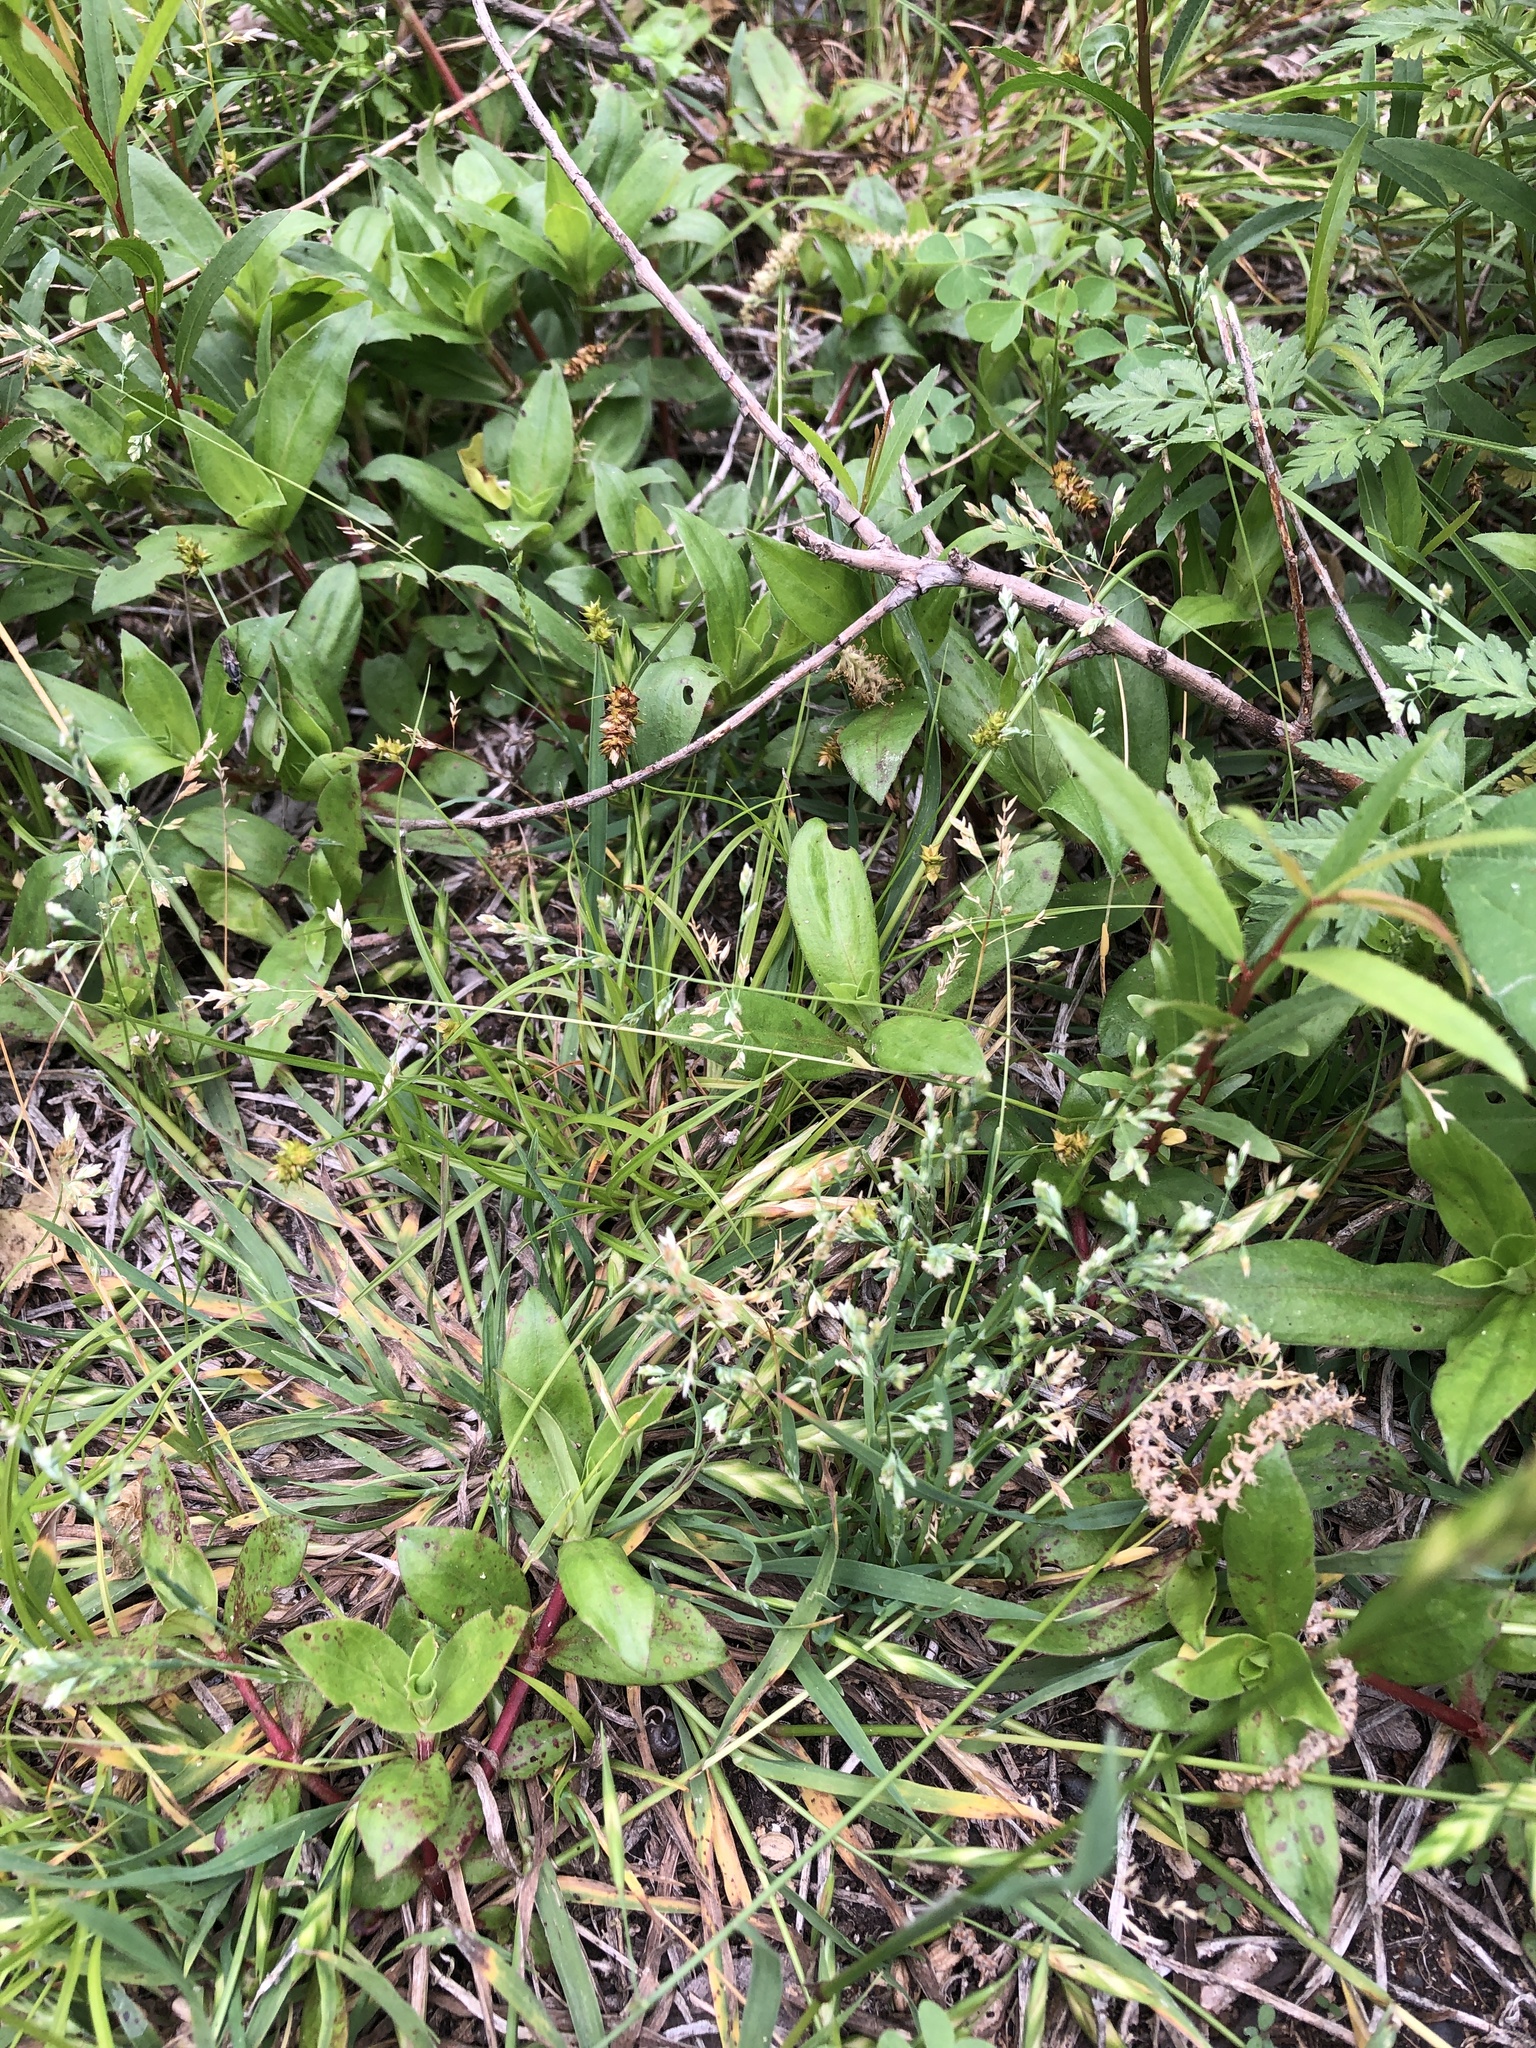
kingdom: Plantae
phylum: Tracheophyta
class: Liliopsida
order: Poales
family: Poaceae
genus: Poa
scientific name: Poa annua
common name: Annual bluegrass
